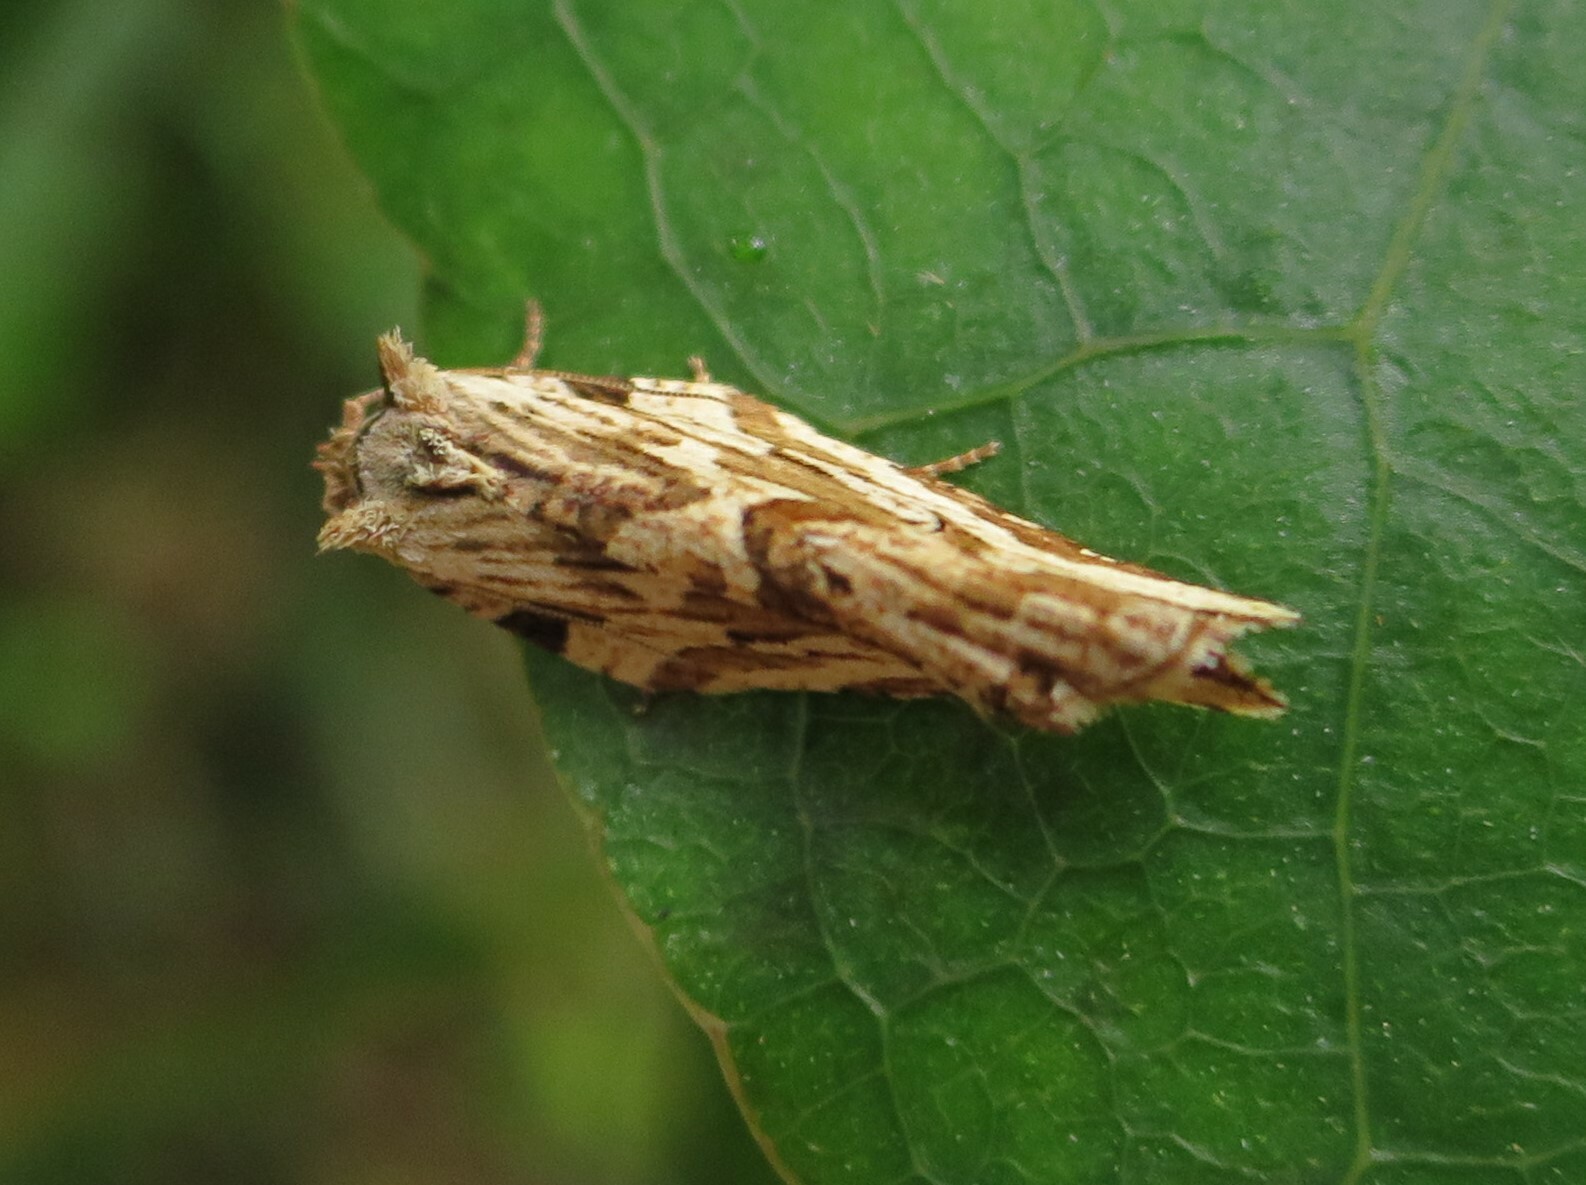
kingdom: Animalia
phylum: Arthropoda
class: Insecta
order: Lepidoptera
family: Tortricidae
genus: Epalxiphora
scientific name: Epalxiphora axenana
